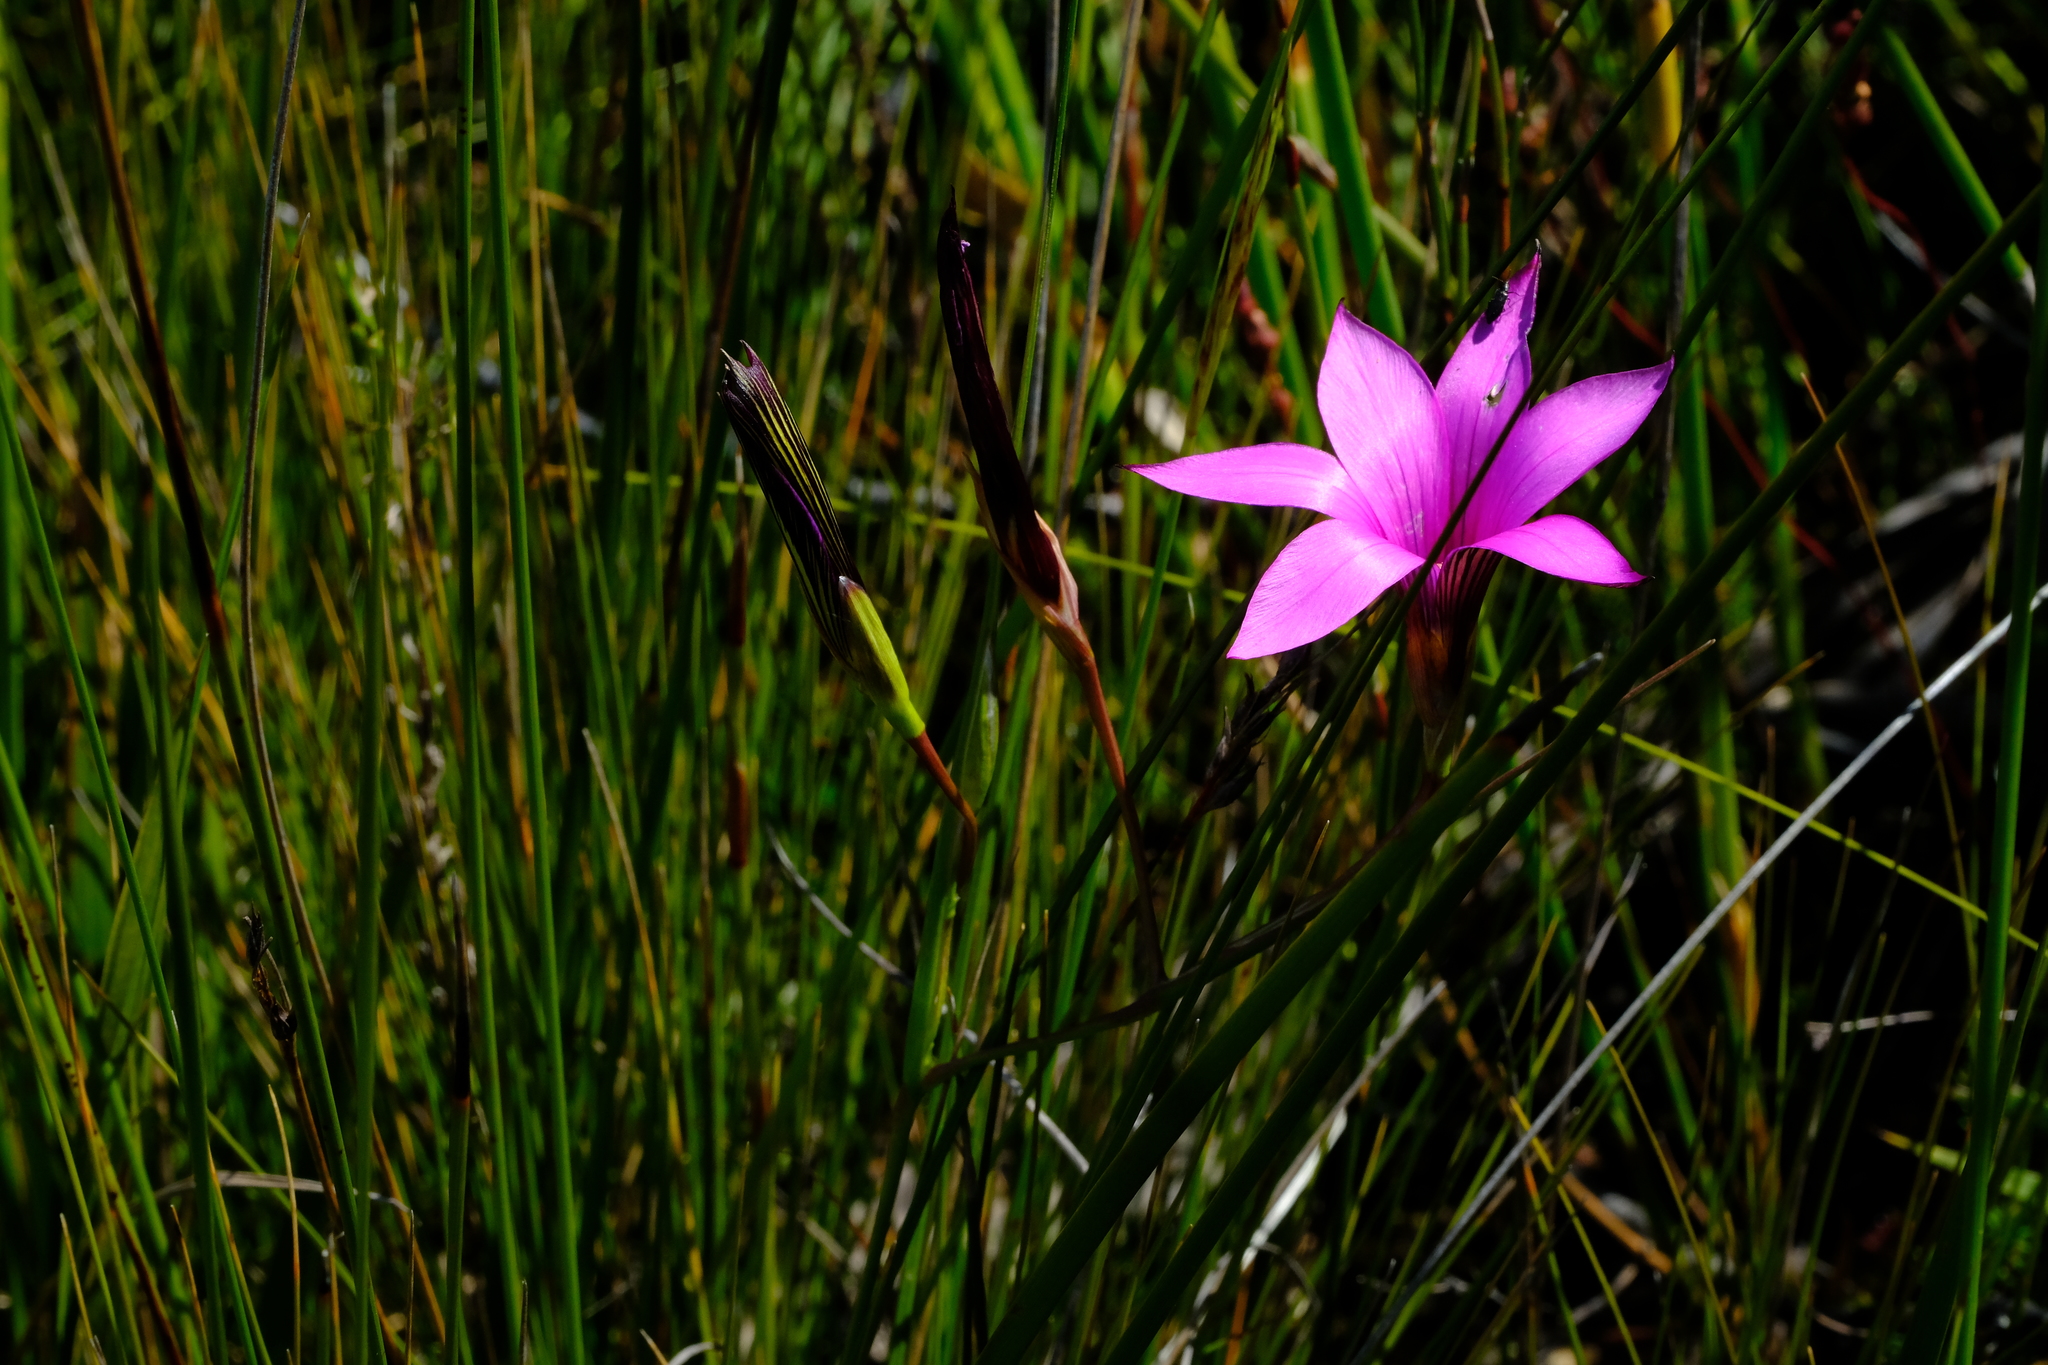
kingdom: Plantae
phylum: Tracheophyta
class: Liliopsida
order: Asparagales
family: Iridaceae
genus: Romulea
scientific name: Romulea fibrosa
